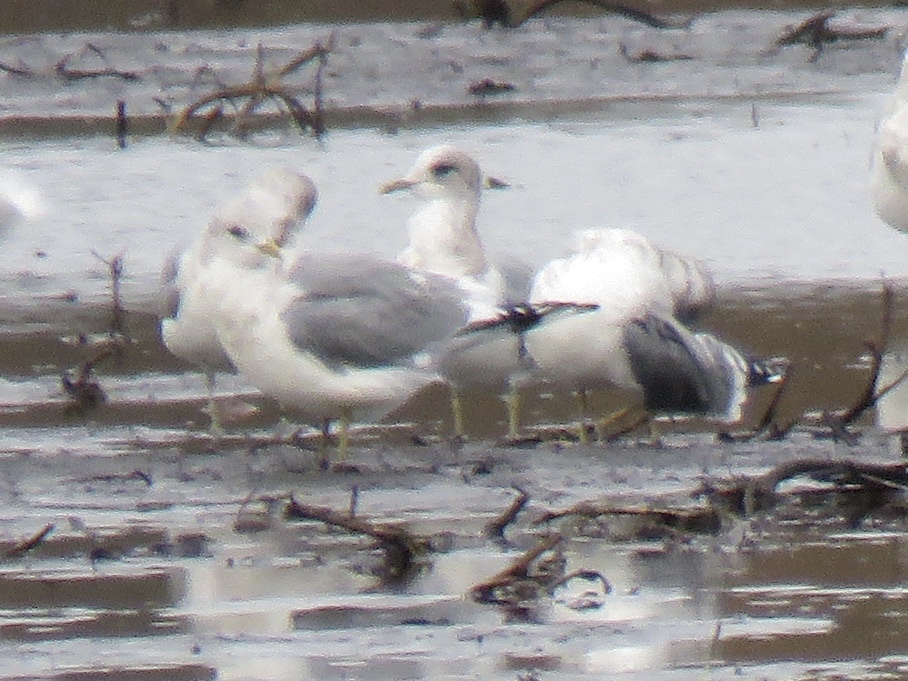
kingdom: Animalia
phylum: Chordata
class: Aves
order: Charadriiformes
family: Laridae
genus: Larus
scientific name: Larus brachyrhynchus
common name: Short-billed gull
